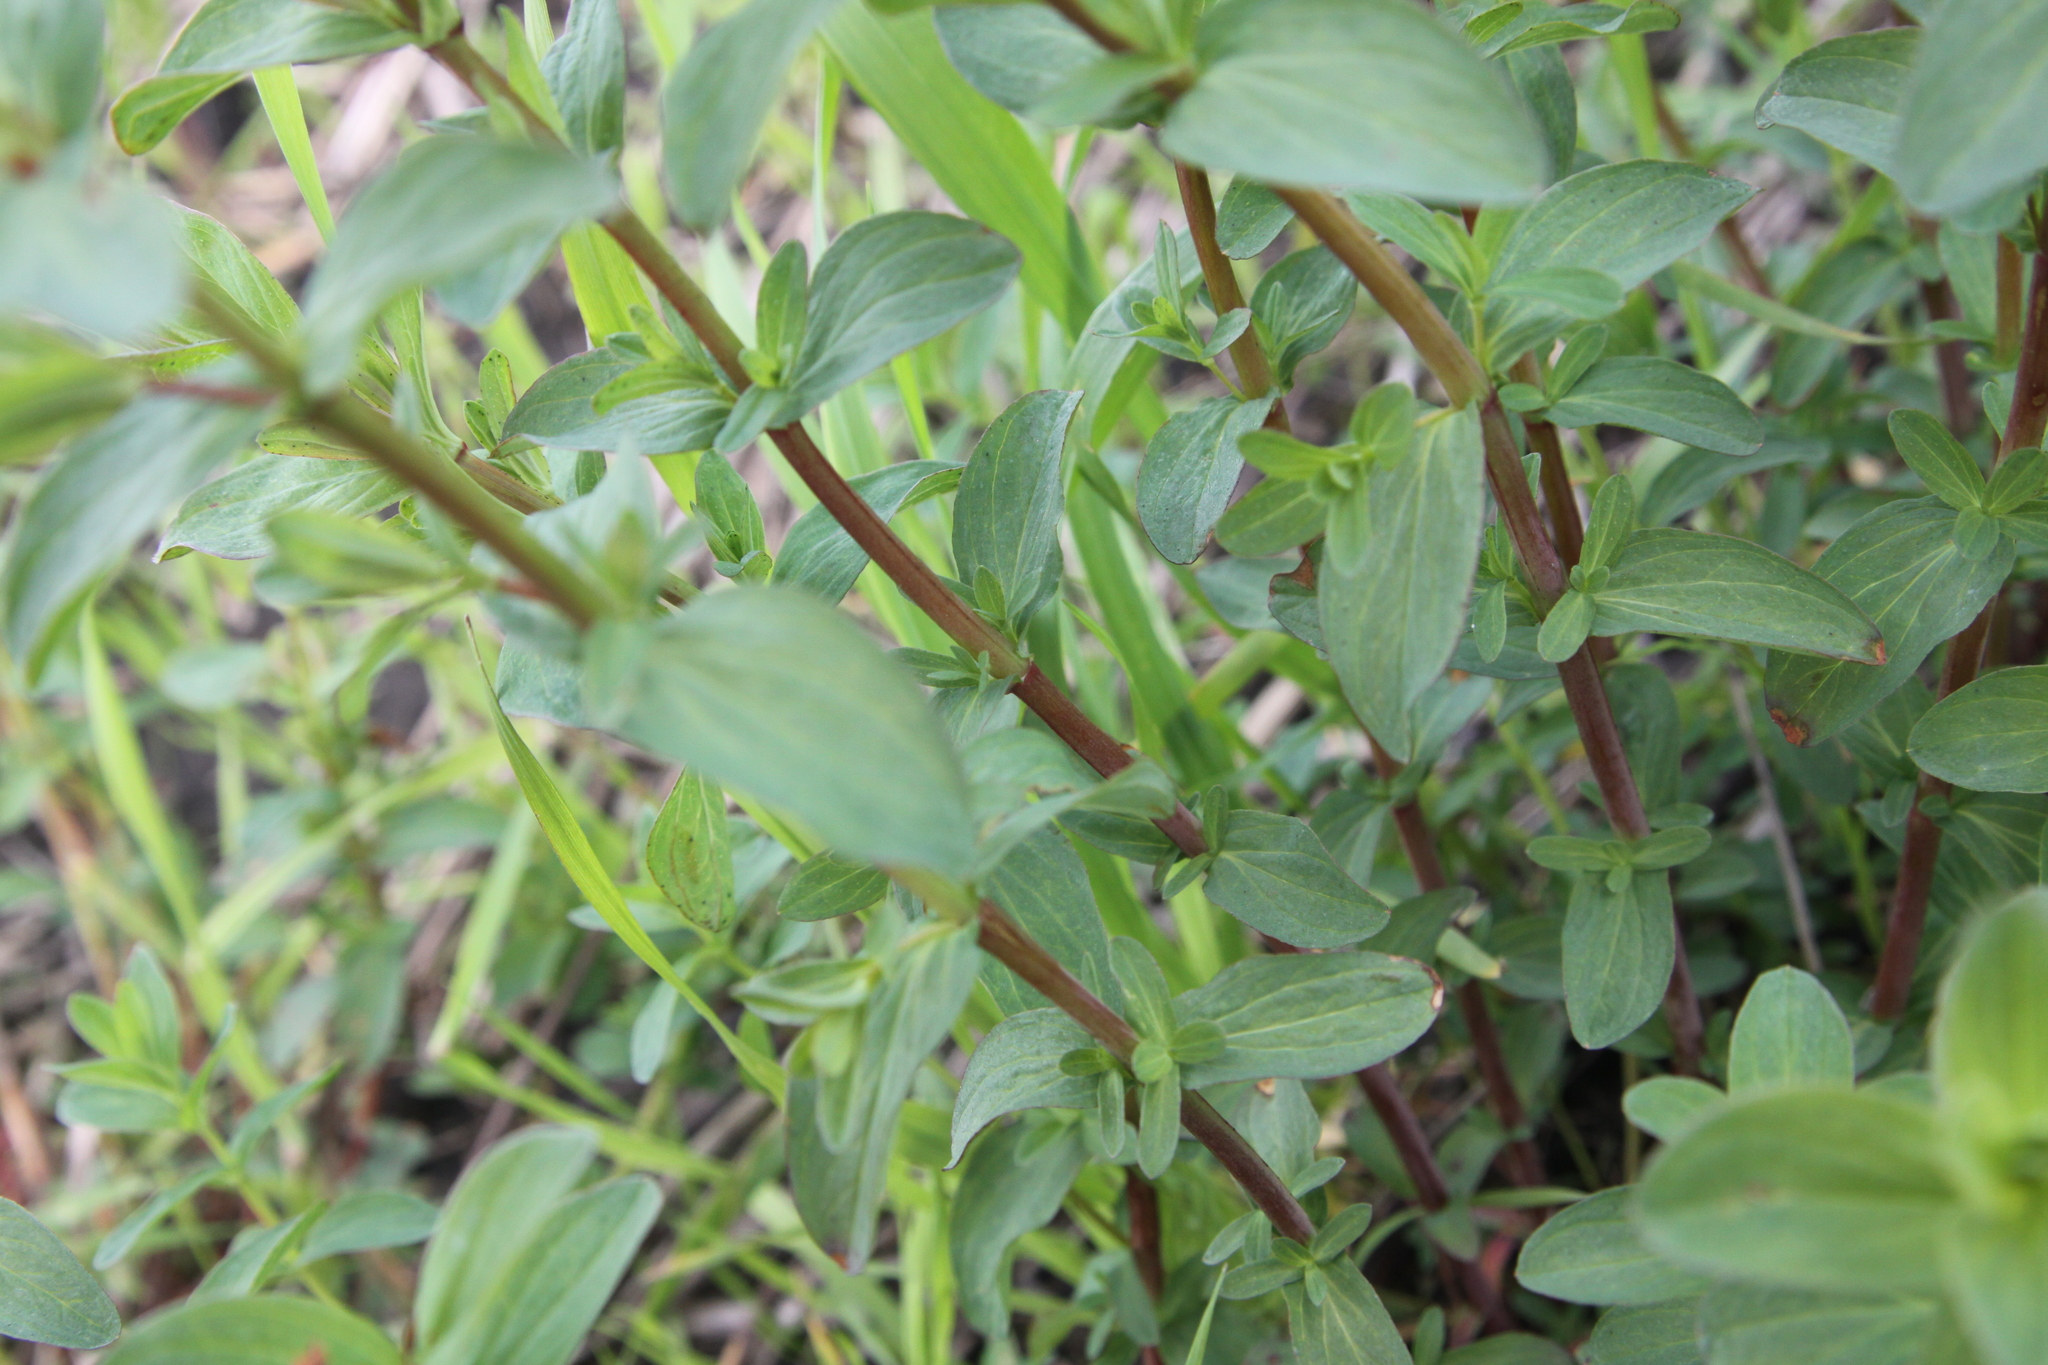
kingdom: Plantae
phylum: Tracheophyta
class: Magnoliopsida
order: Malpighiales
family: Hypericaceae
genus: Hypericum
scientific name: Hypericum perforatum
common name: Common st. johnswort
